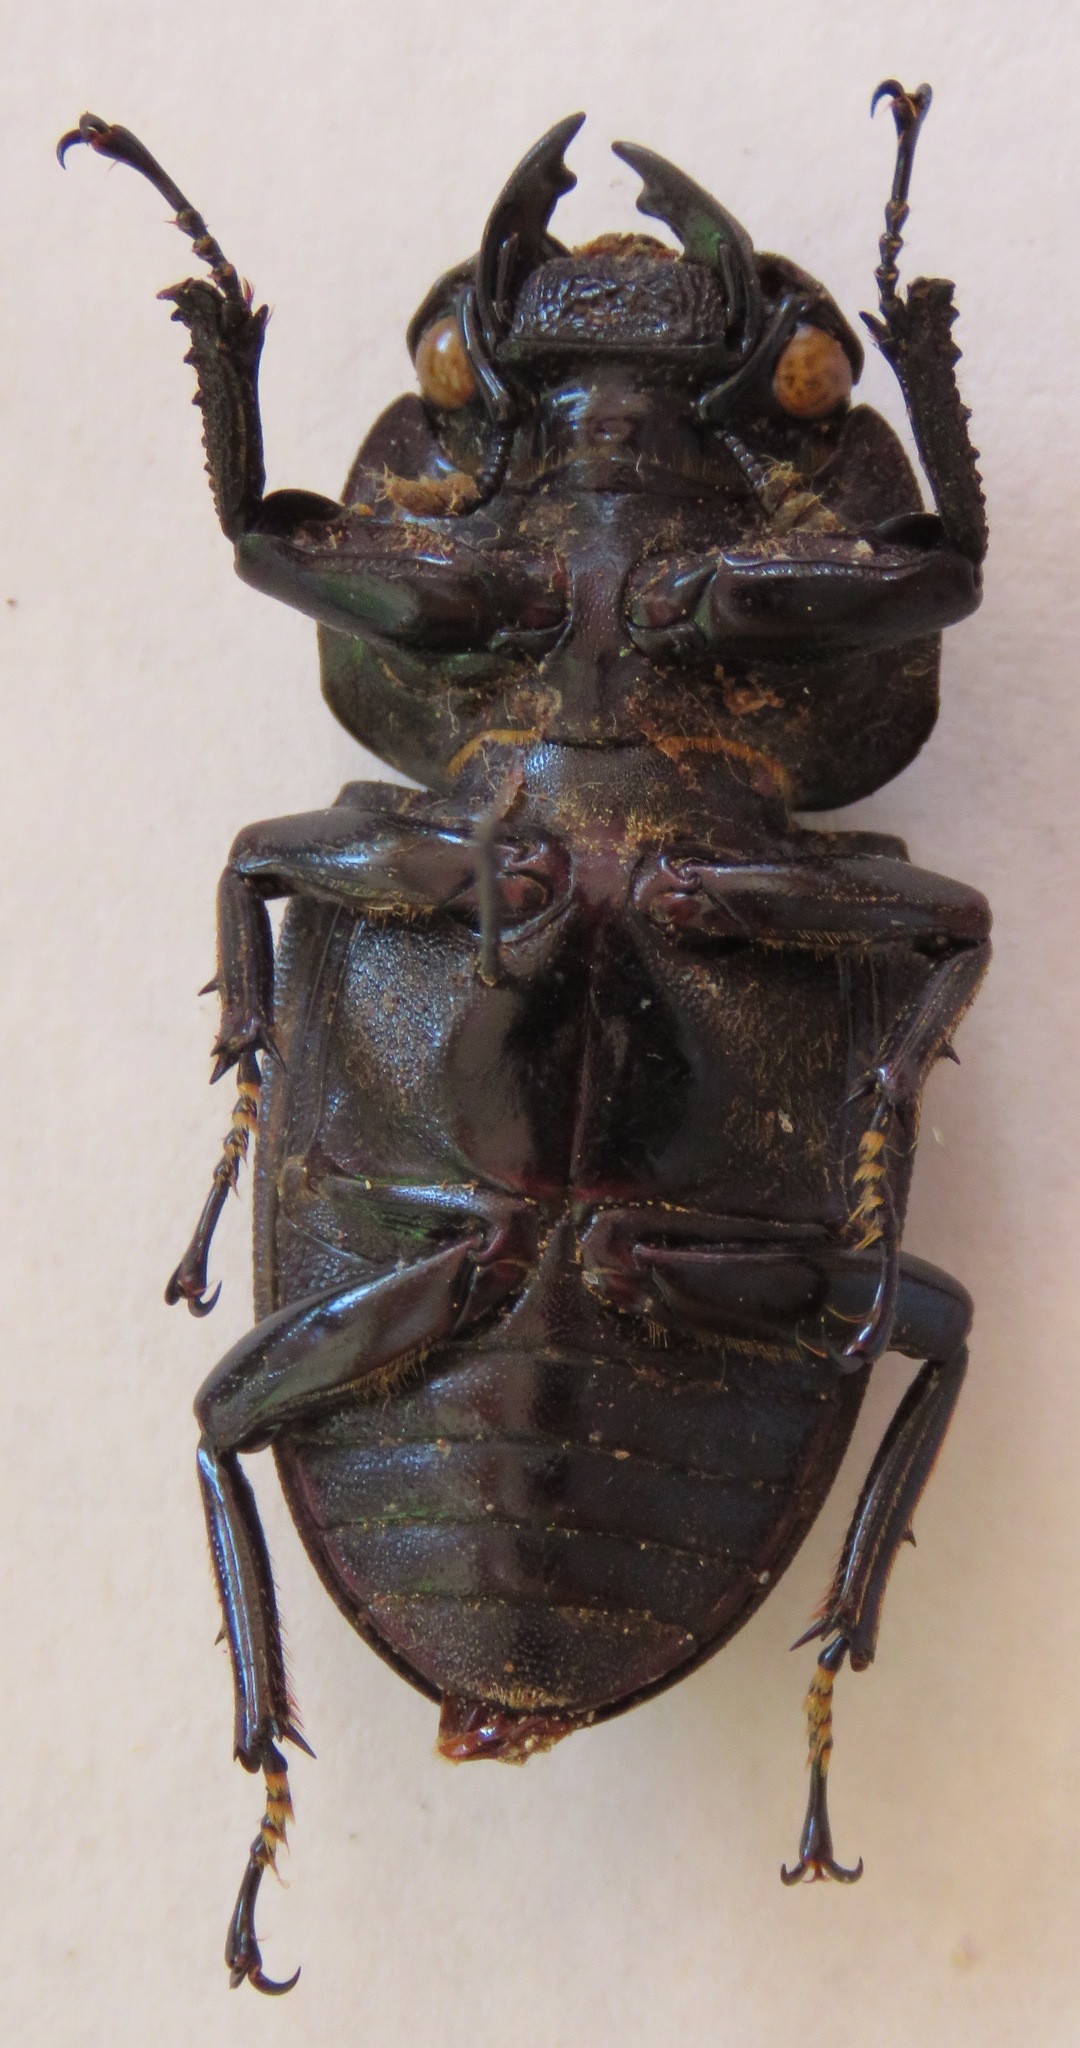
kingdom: Animalia
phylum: Arthropoda
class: Insecta
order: Coleoptera
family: Lucanidae
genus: Dorcus
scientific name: Dorcus curvidens
